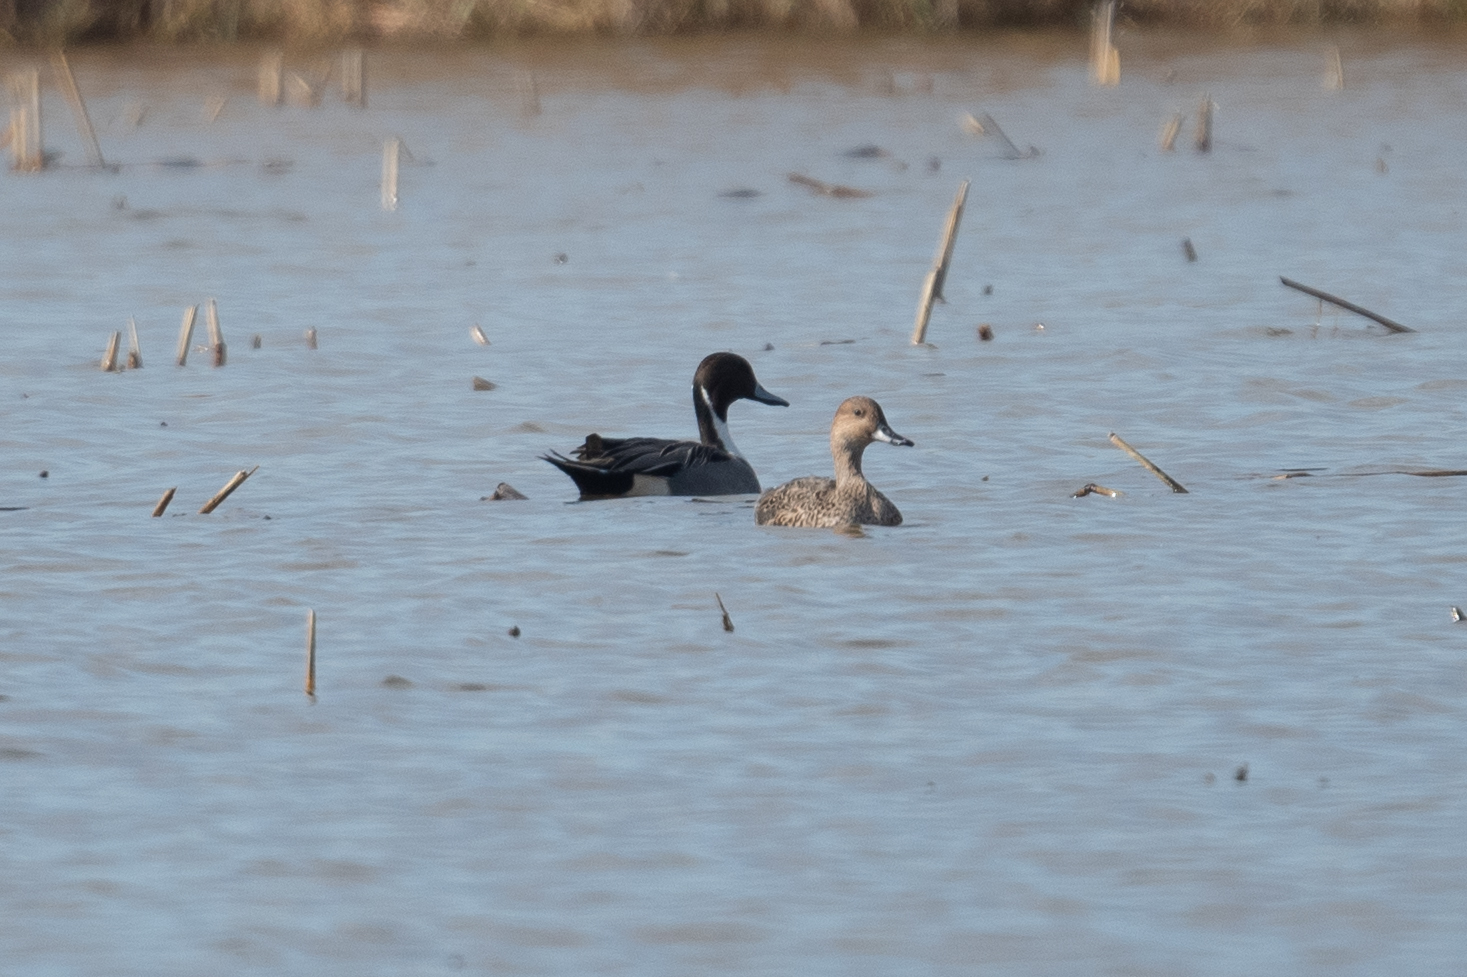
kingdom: Animalia
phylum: Chordata
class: Aves
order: Anseriformes
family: Anatidae
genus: Anas
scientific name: Anas acuta
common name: Northern pintail
